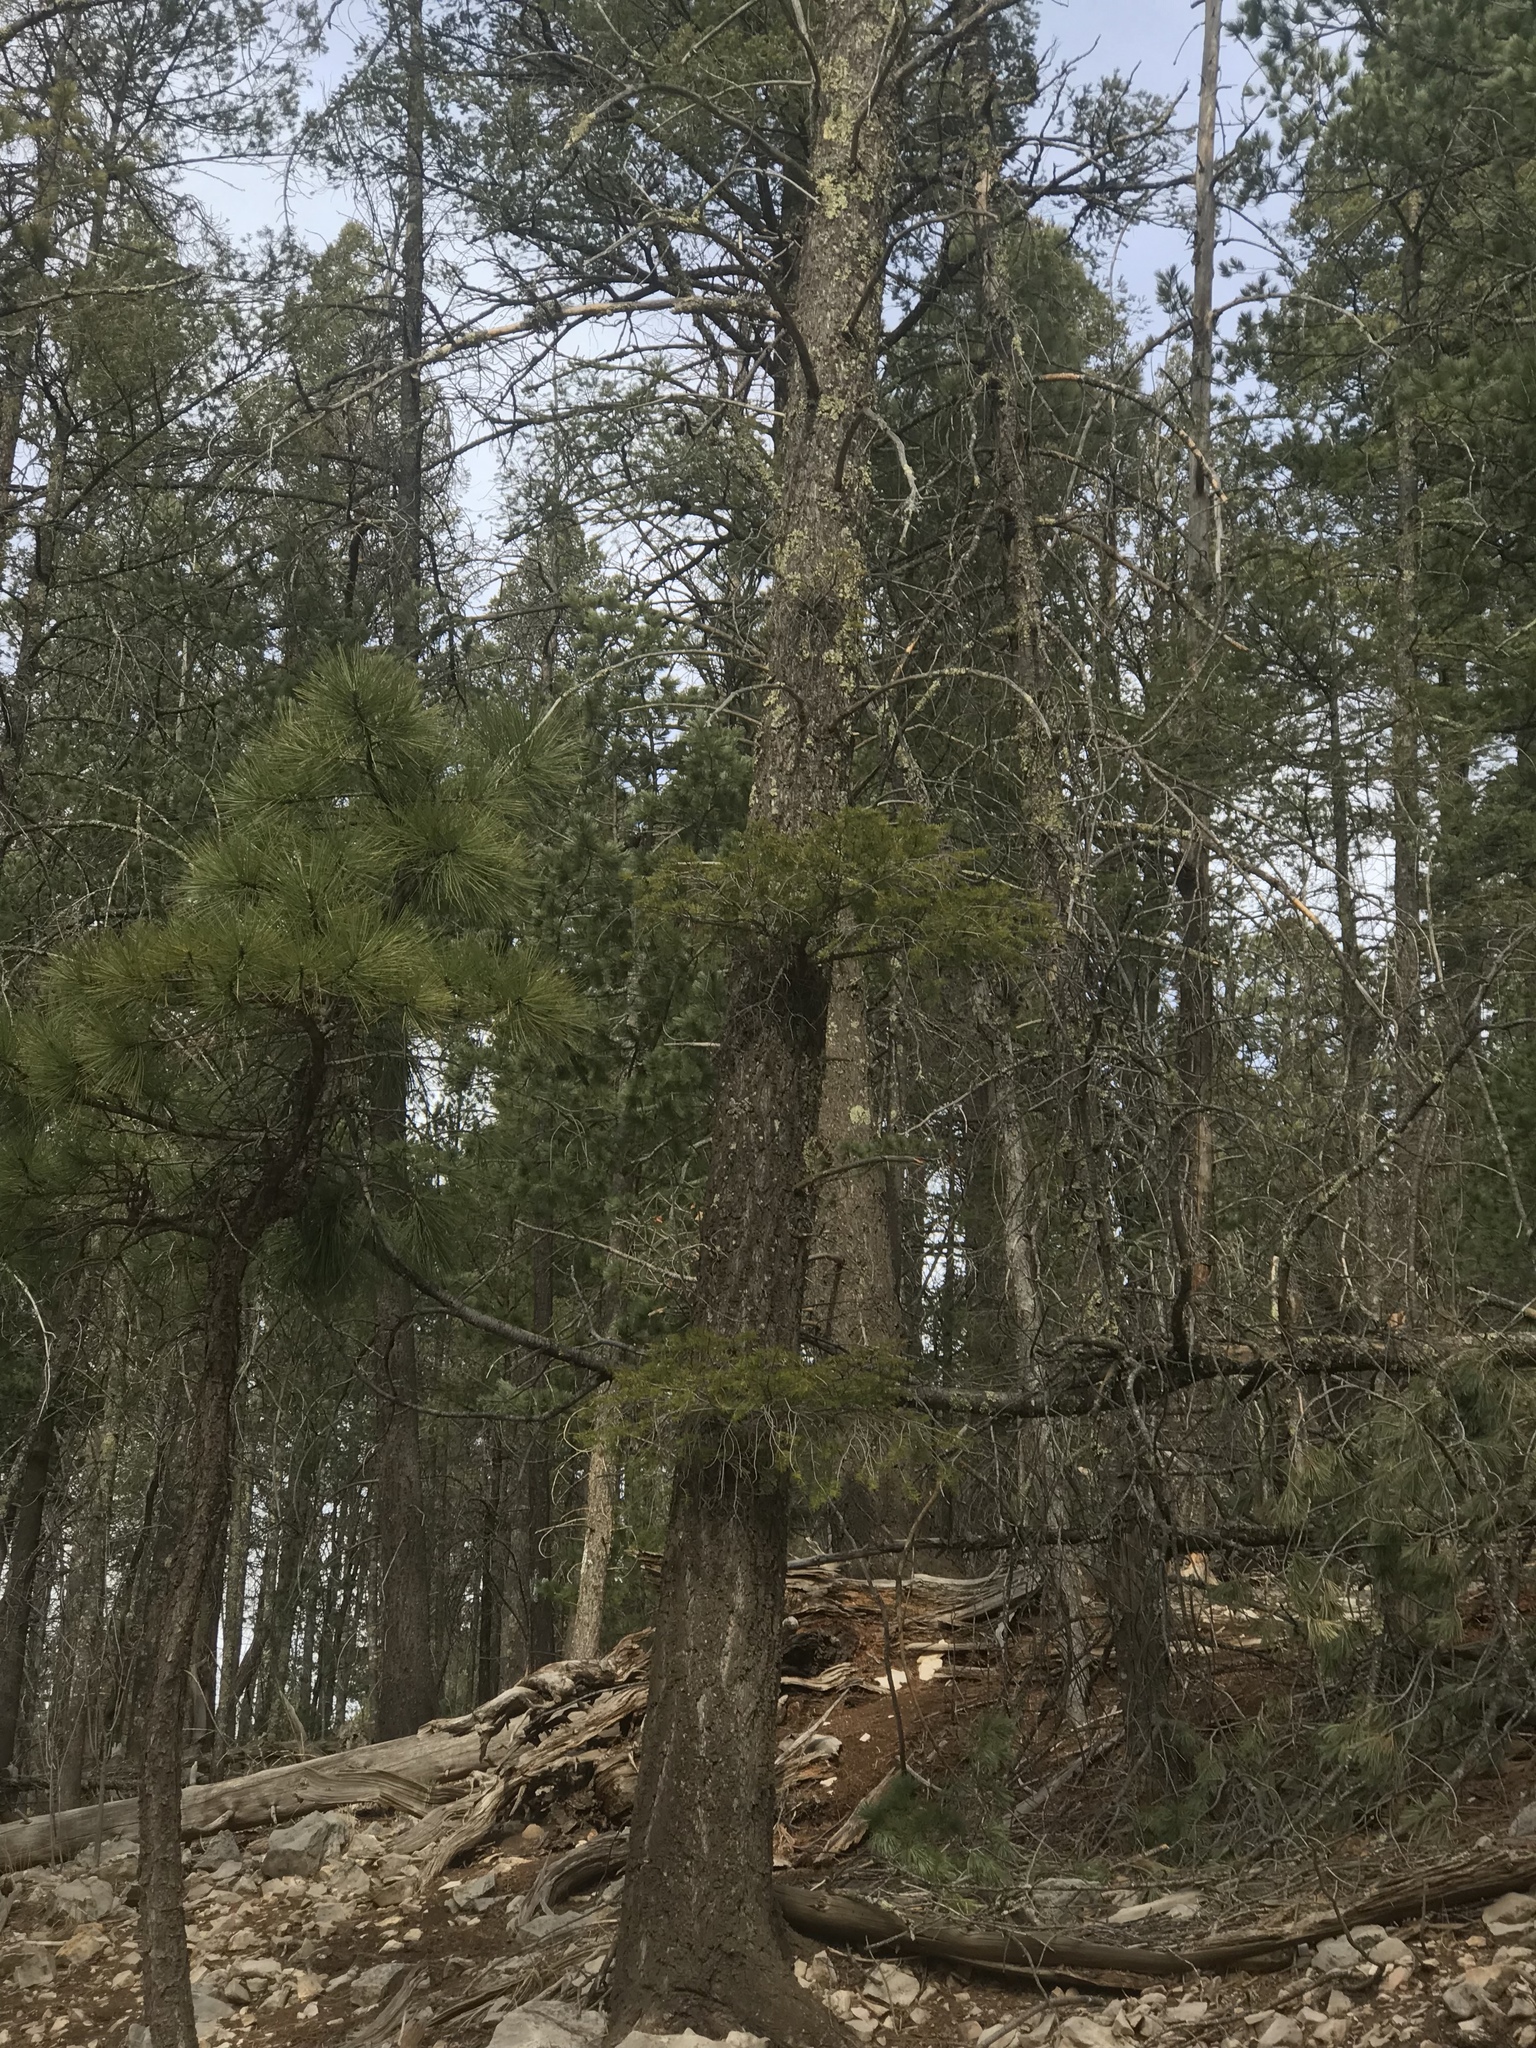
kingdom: Plantae
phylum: Tracheophyta
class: Pinopsida
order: Pinales
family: Pinaceae
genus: Pseudotsuga
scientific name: Pseudotsuga menziesii
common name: Douglas fir
